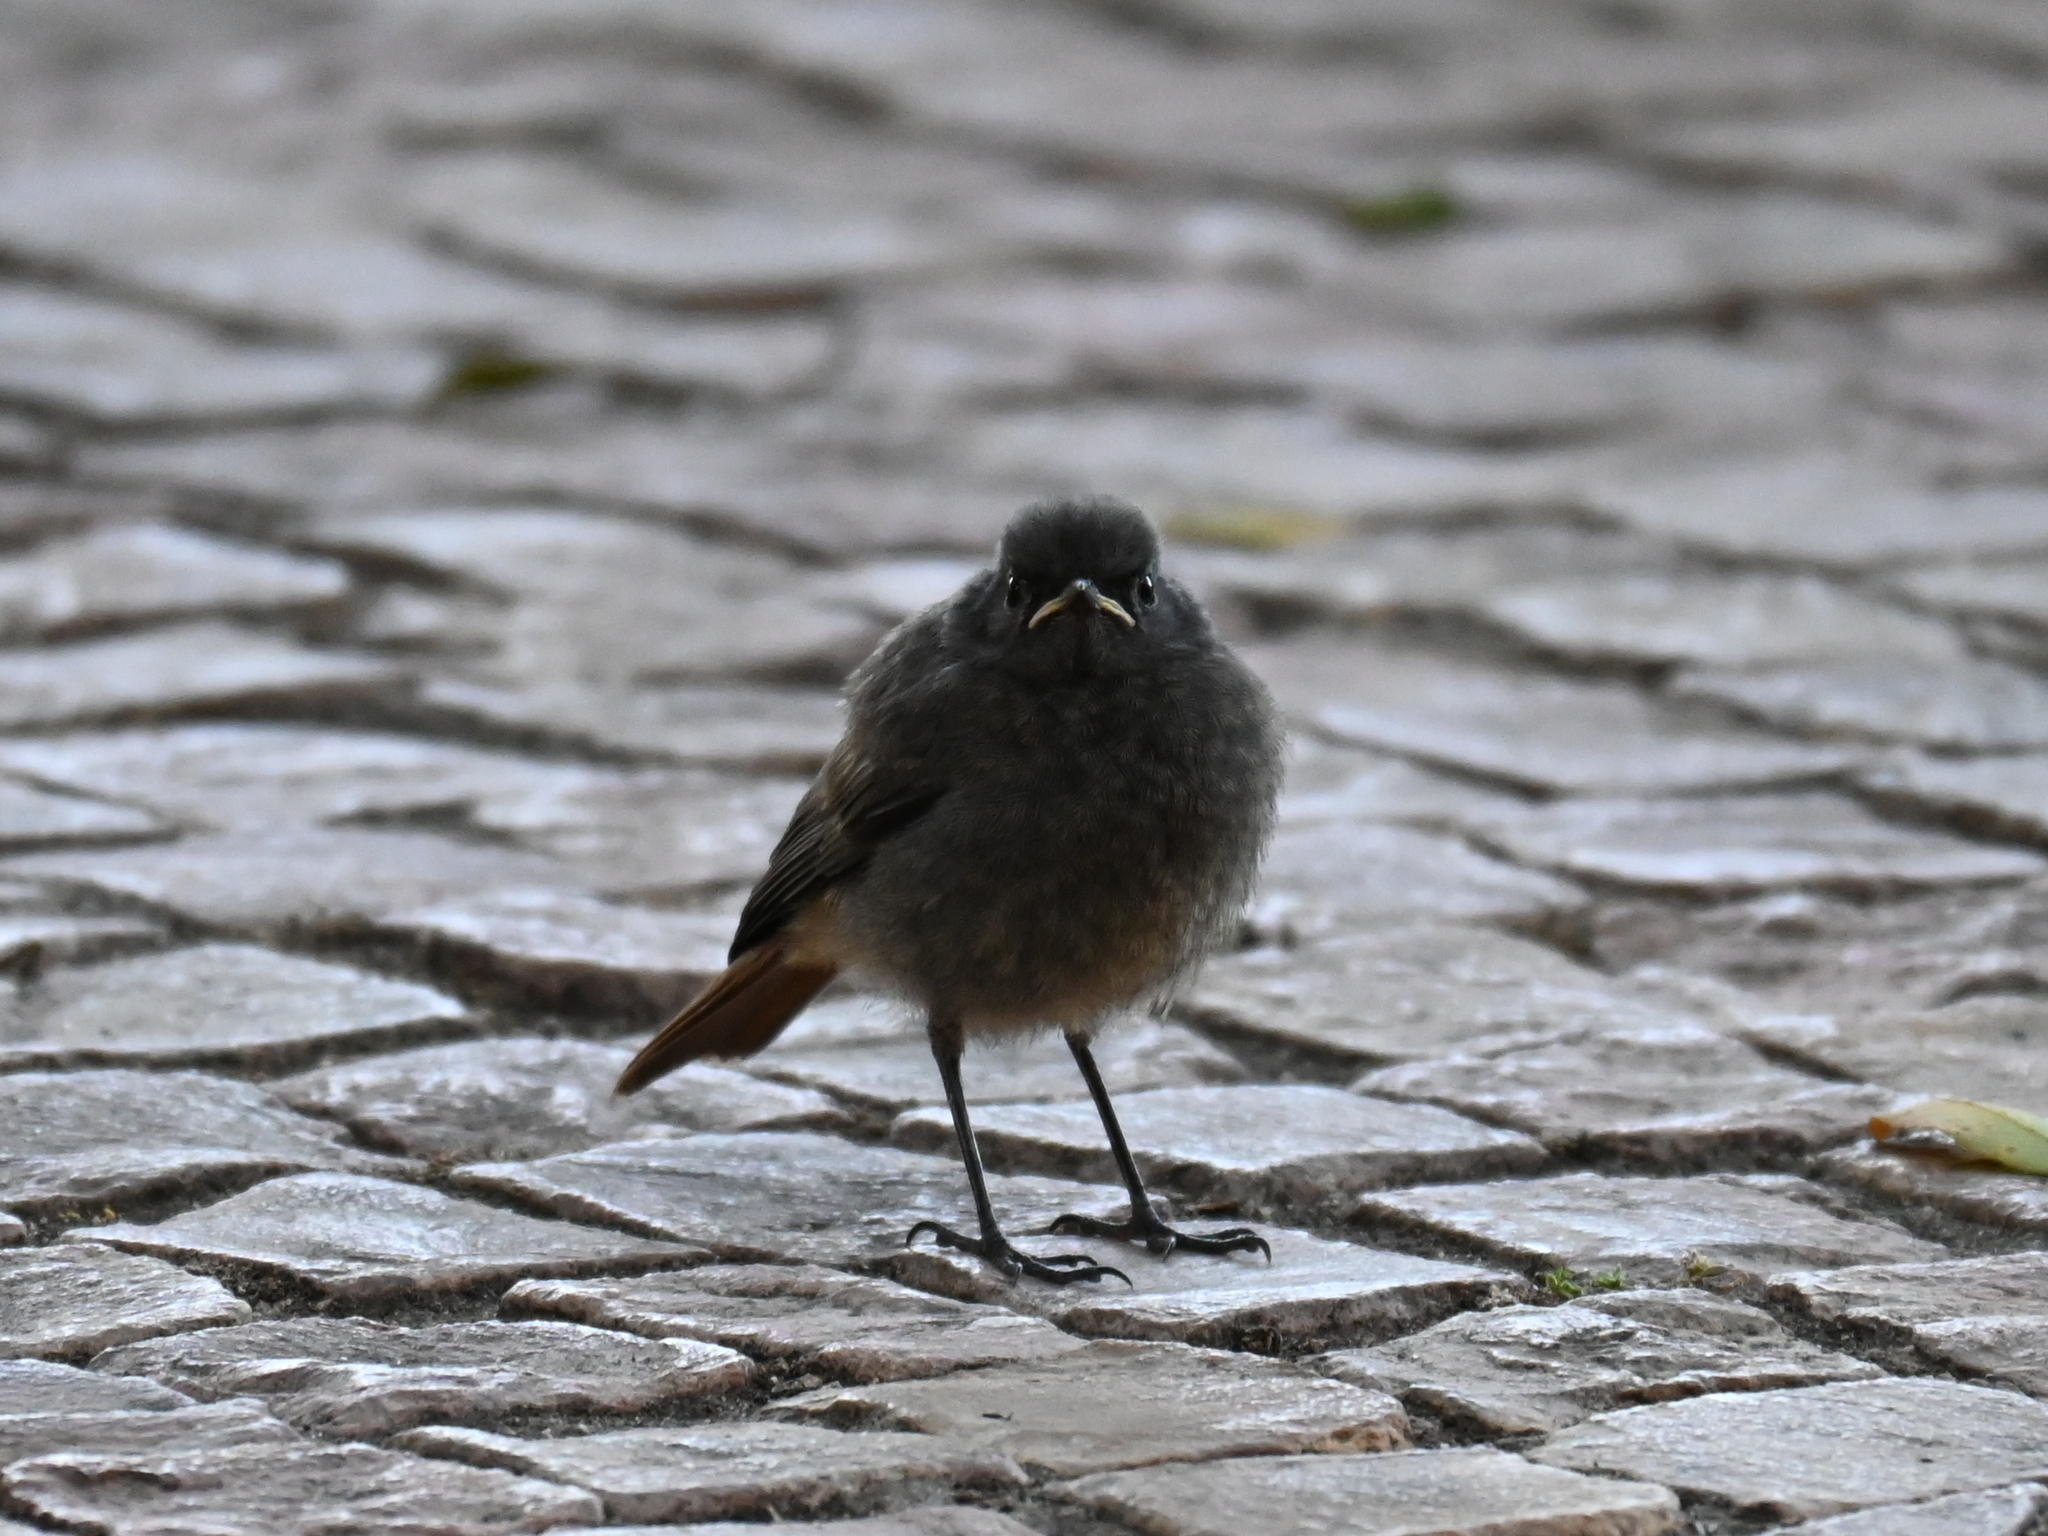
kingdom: Animalia
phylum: Chordata
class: Aves
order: Passeriformes
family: Muscicapidae
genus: Phoenicurus
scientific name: Phoenicurus ochruros
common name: Black redstart
